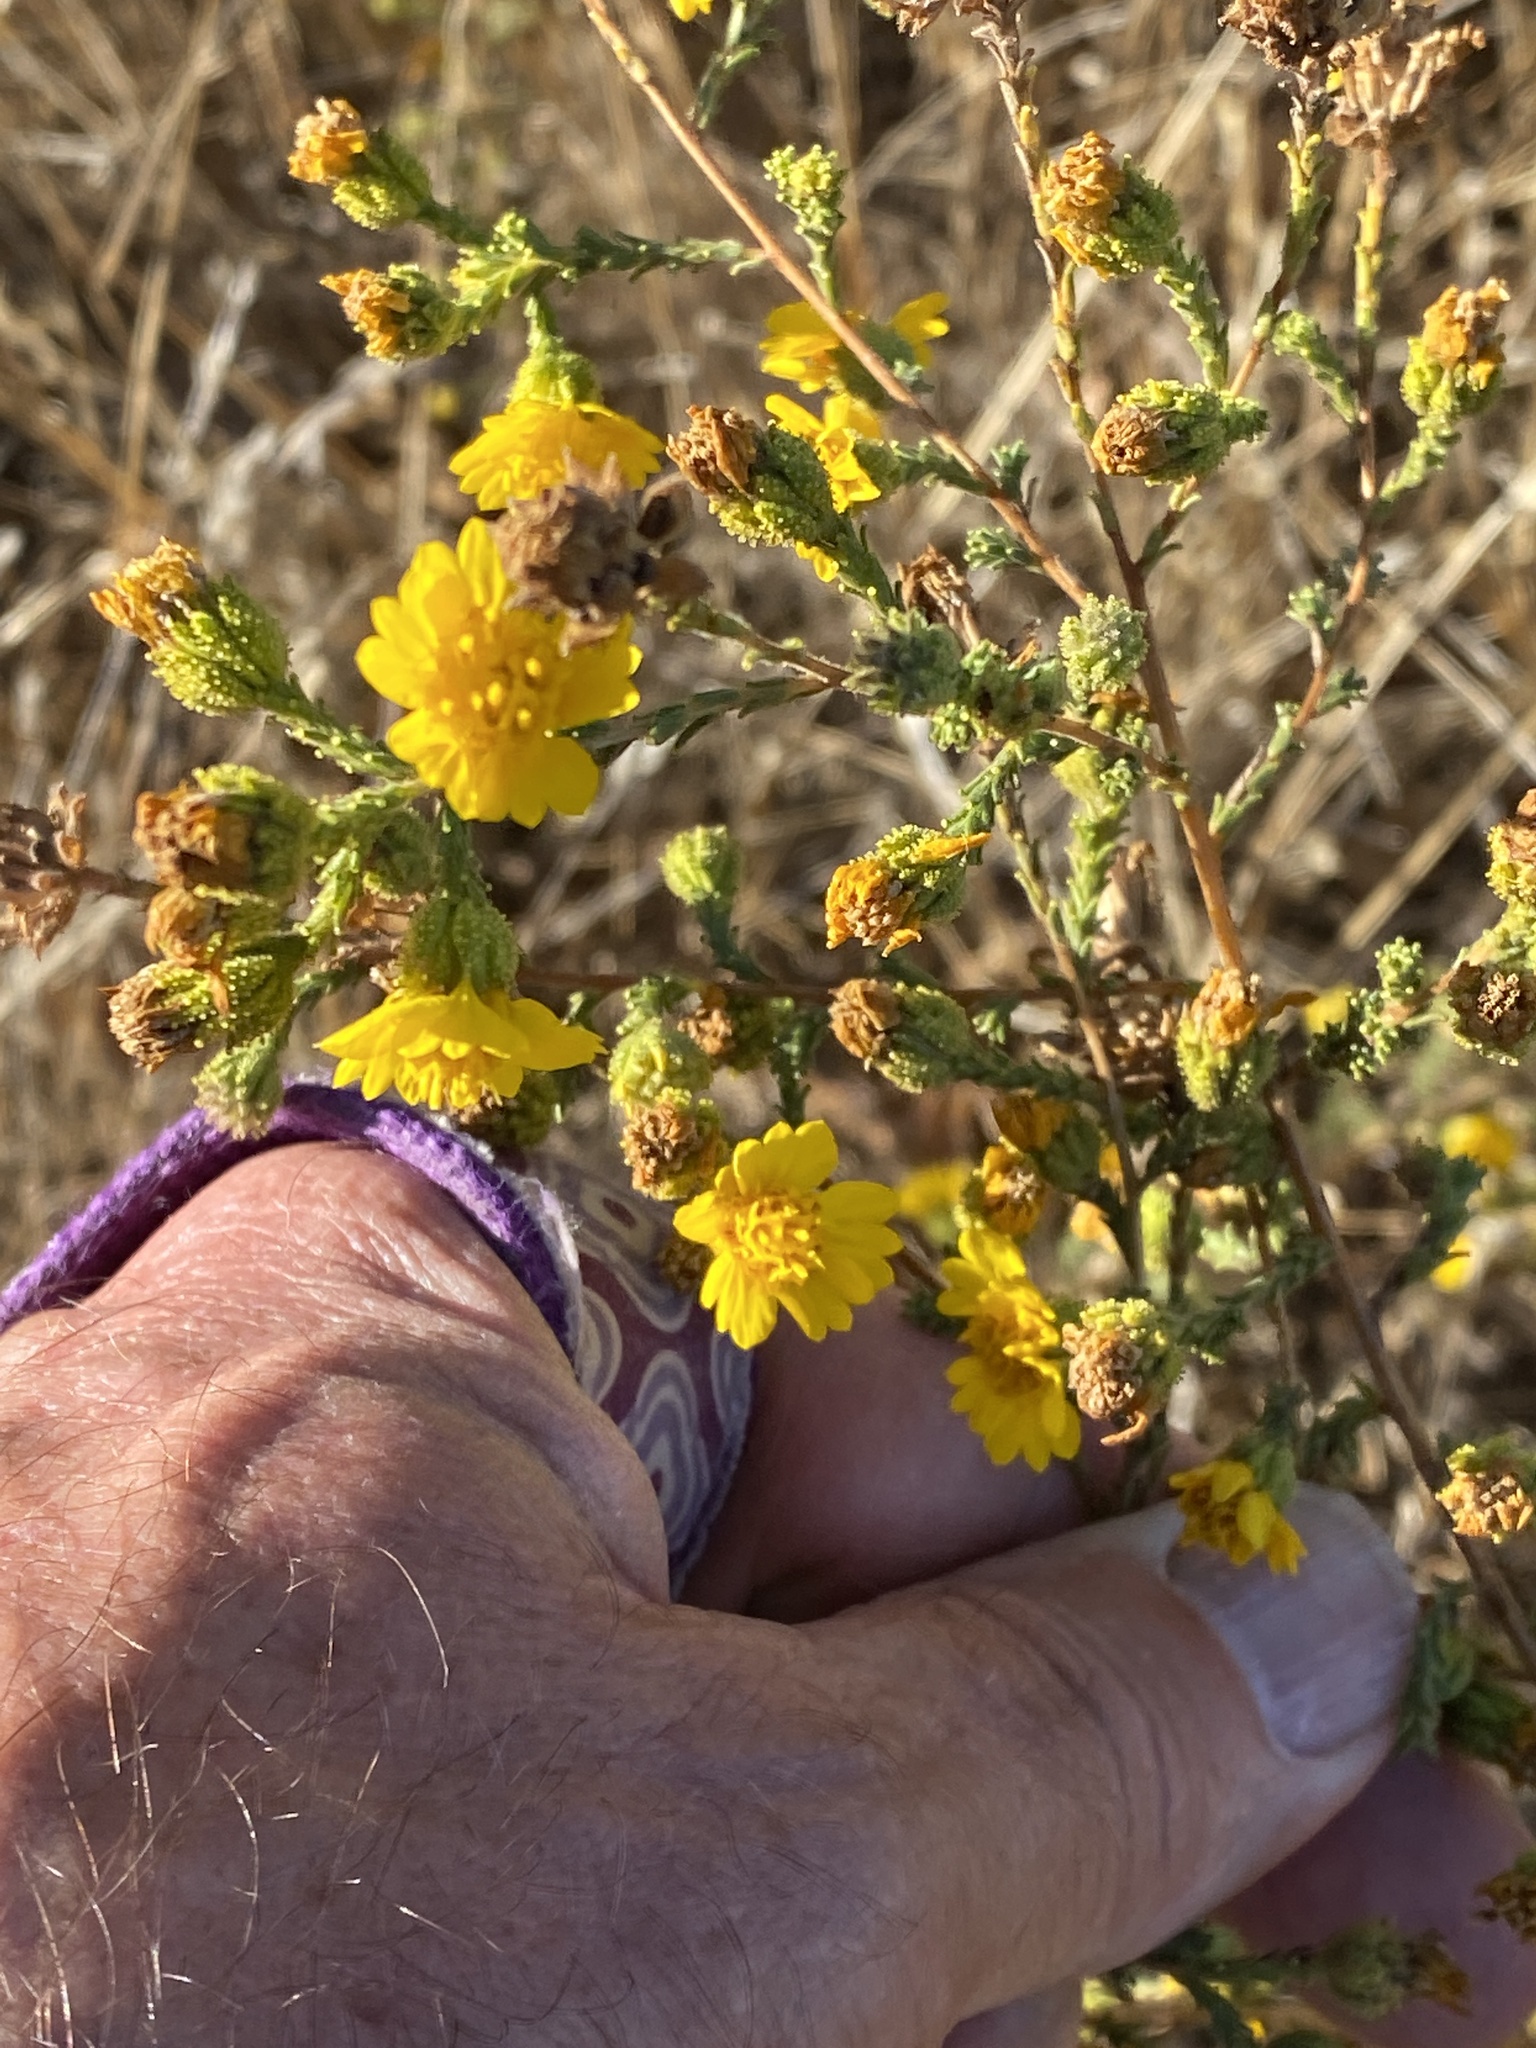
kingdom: Plantae
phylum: Tracheophyta
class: Magnoliopsida
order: Asterales
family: Asteraceae
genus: Holocarpha
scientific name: Holocarpha heermannii
